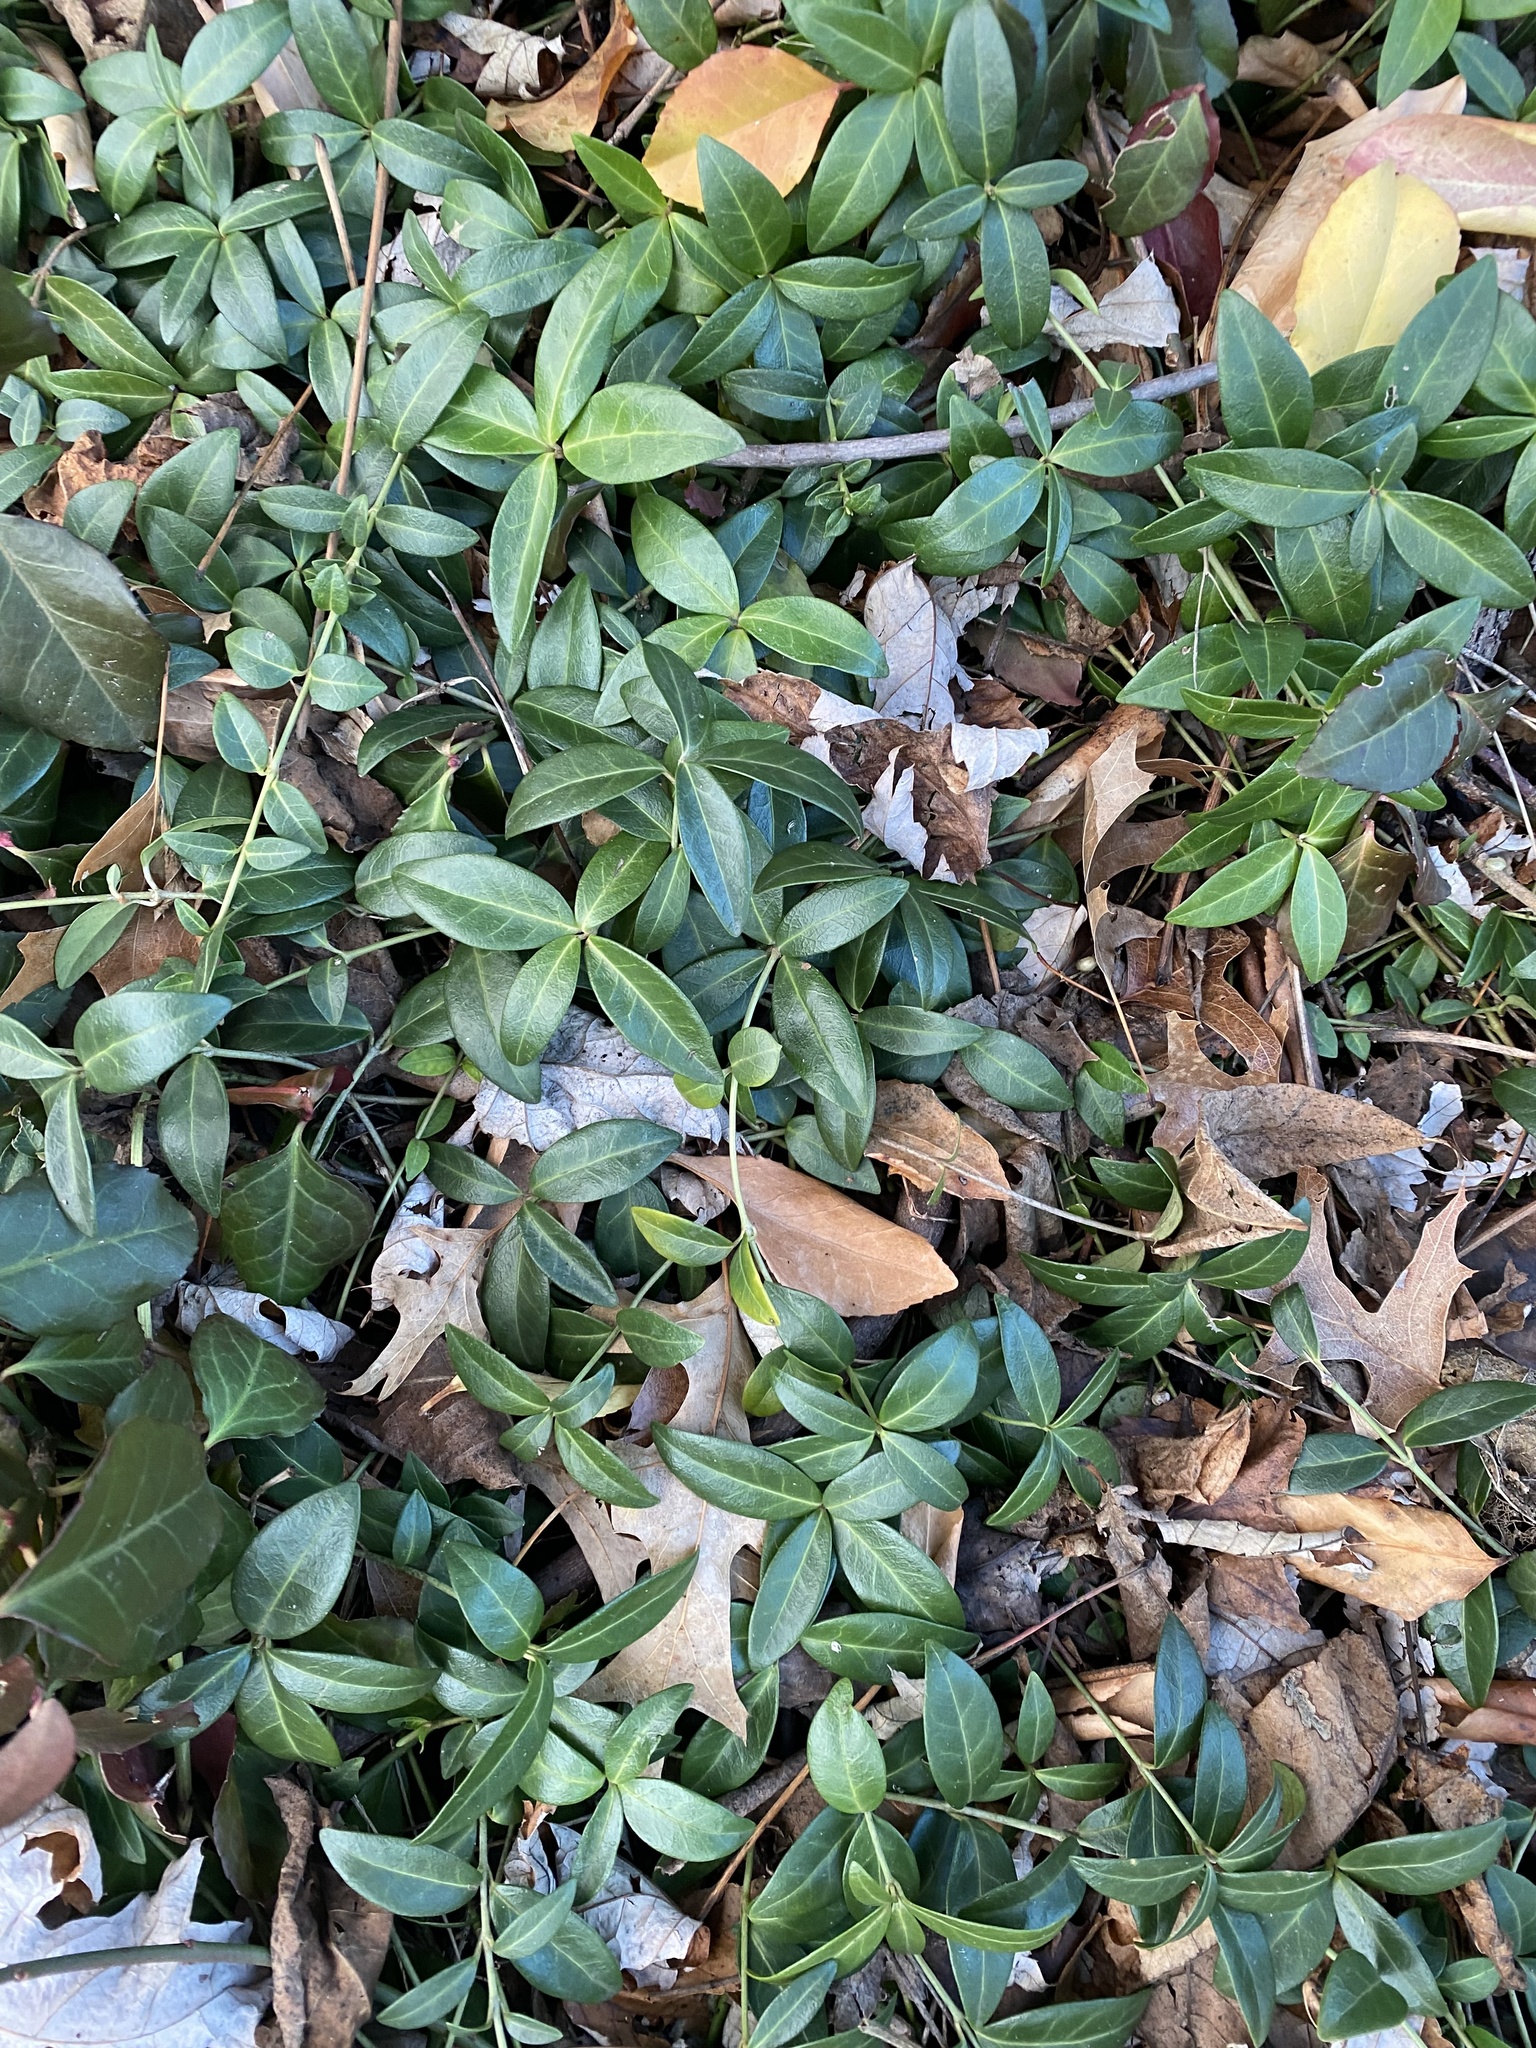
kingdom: Plantae
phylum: Tracheophyta
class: Magnoliopsida
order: Gentianales
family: Apocynaceae
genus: Vinca
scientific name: Vinca minor
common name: Lesser periwinkle
